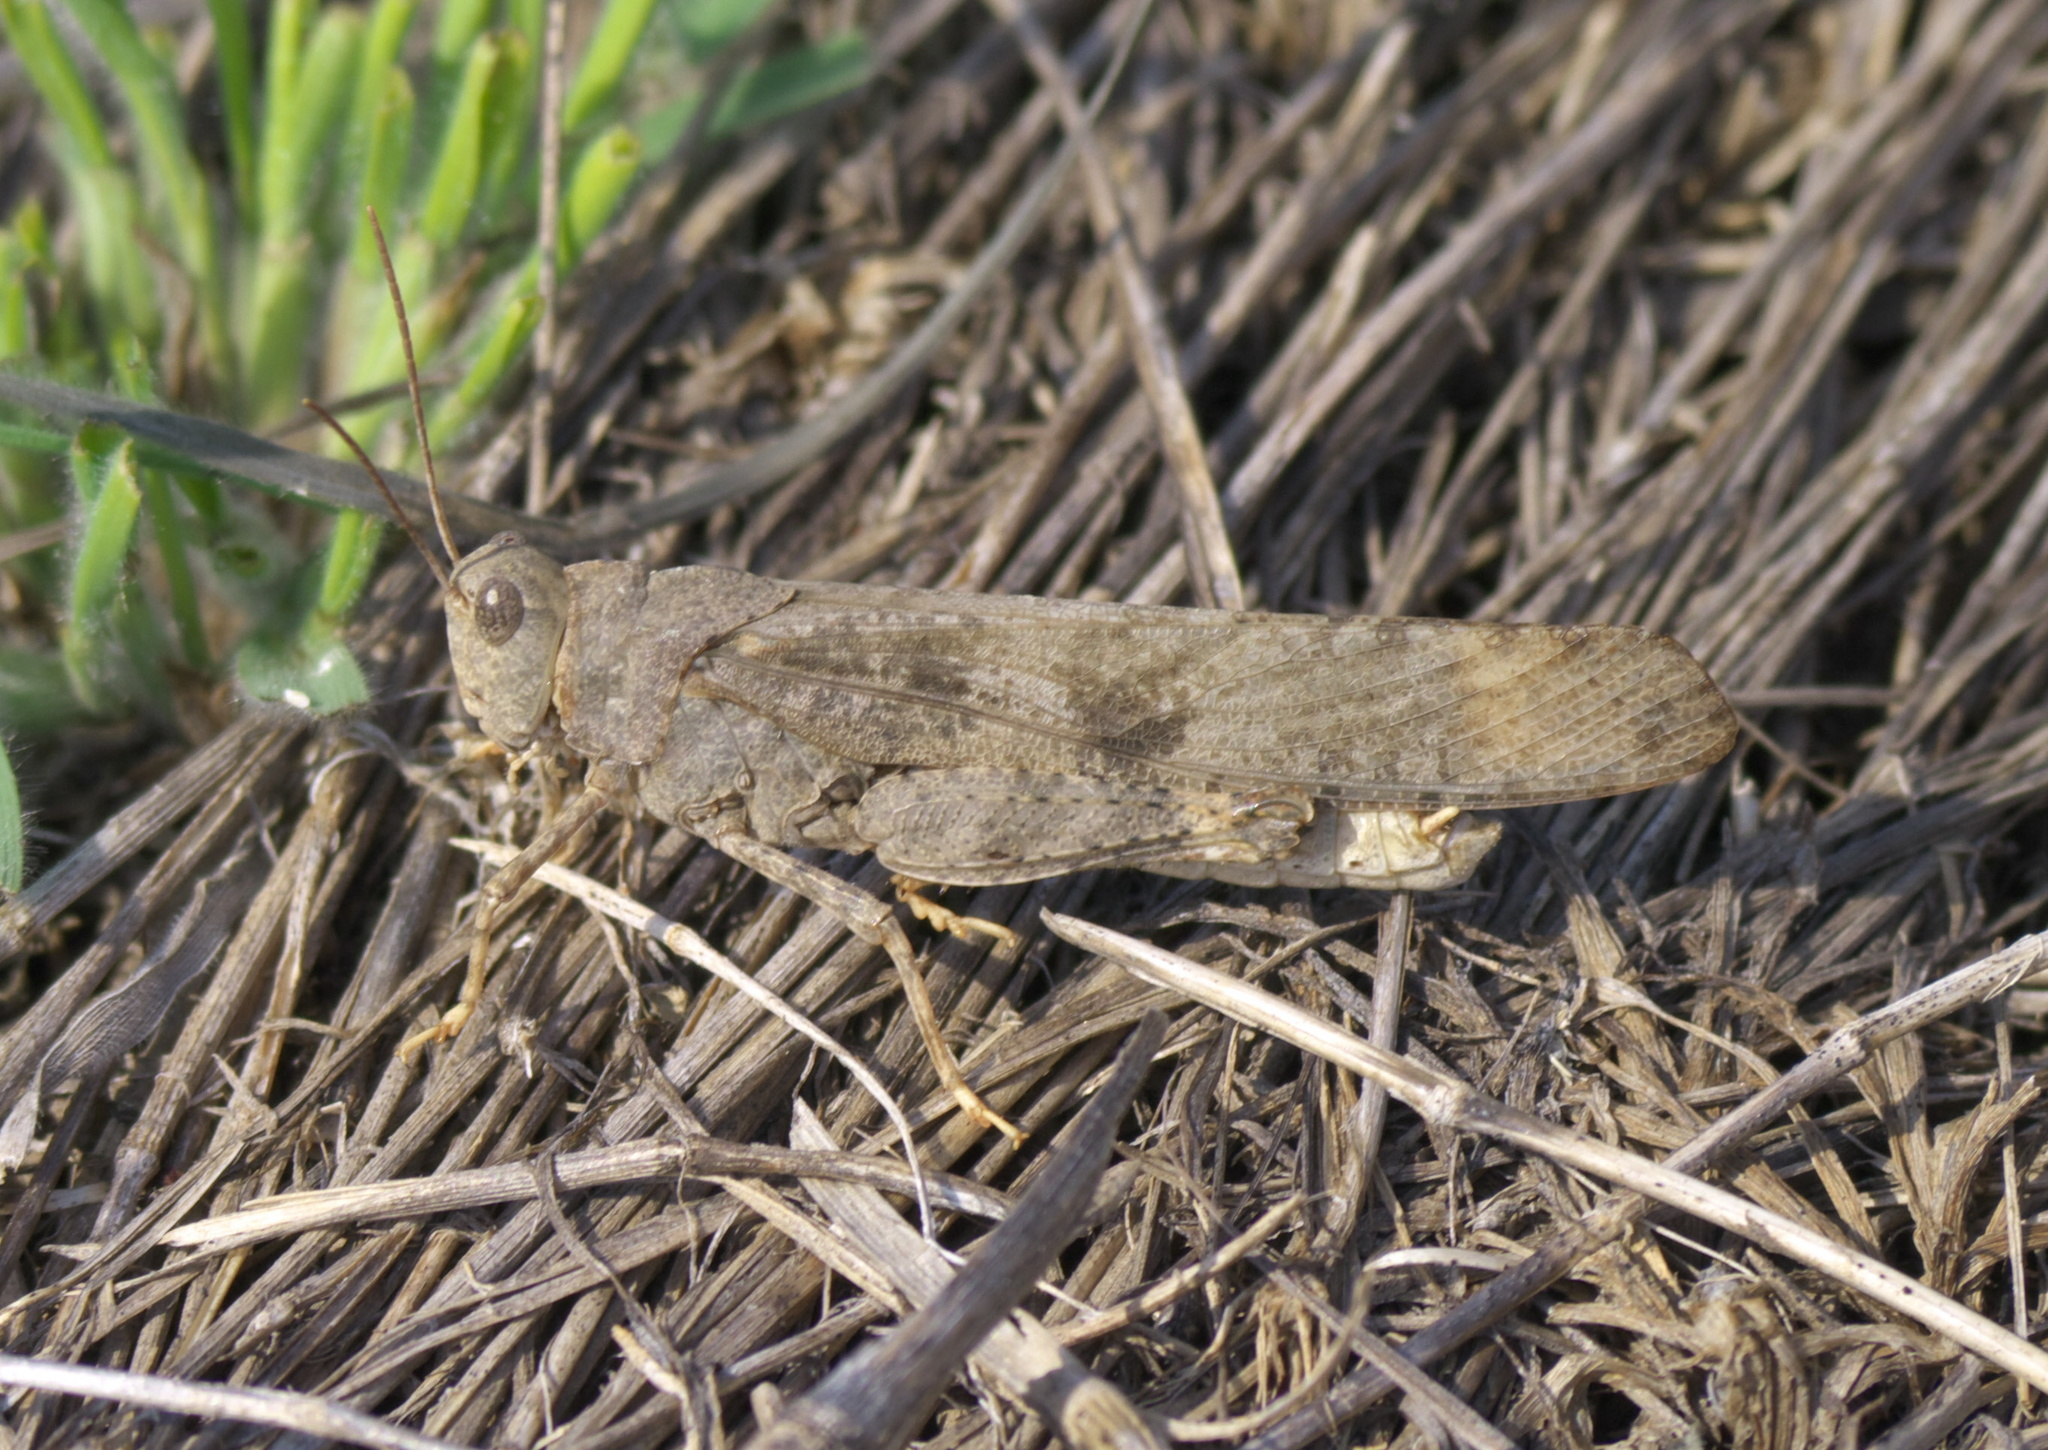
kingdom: Animalia
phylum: Arthropoda
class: Insecta
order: Orthoptera
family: Acrididae
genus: Dissosteira
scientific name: Dissosteira carolina
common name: Carolina grasshopper
